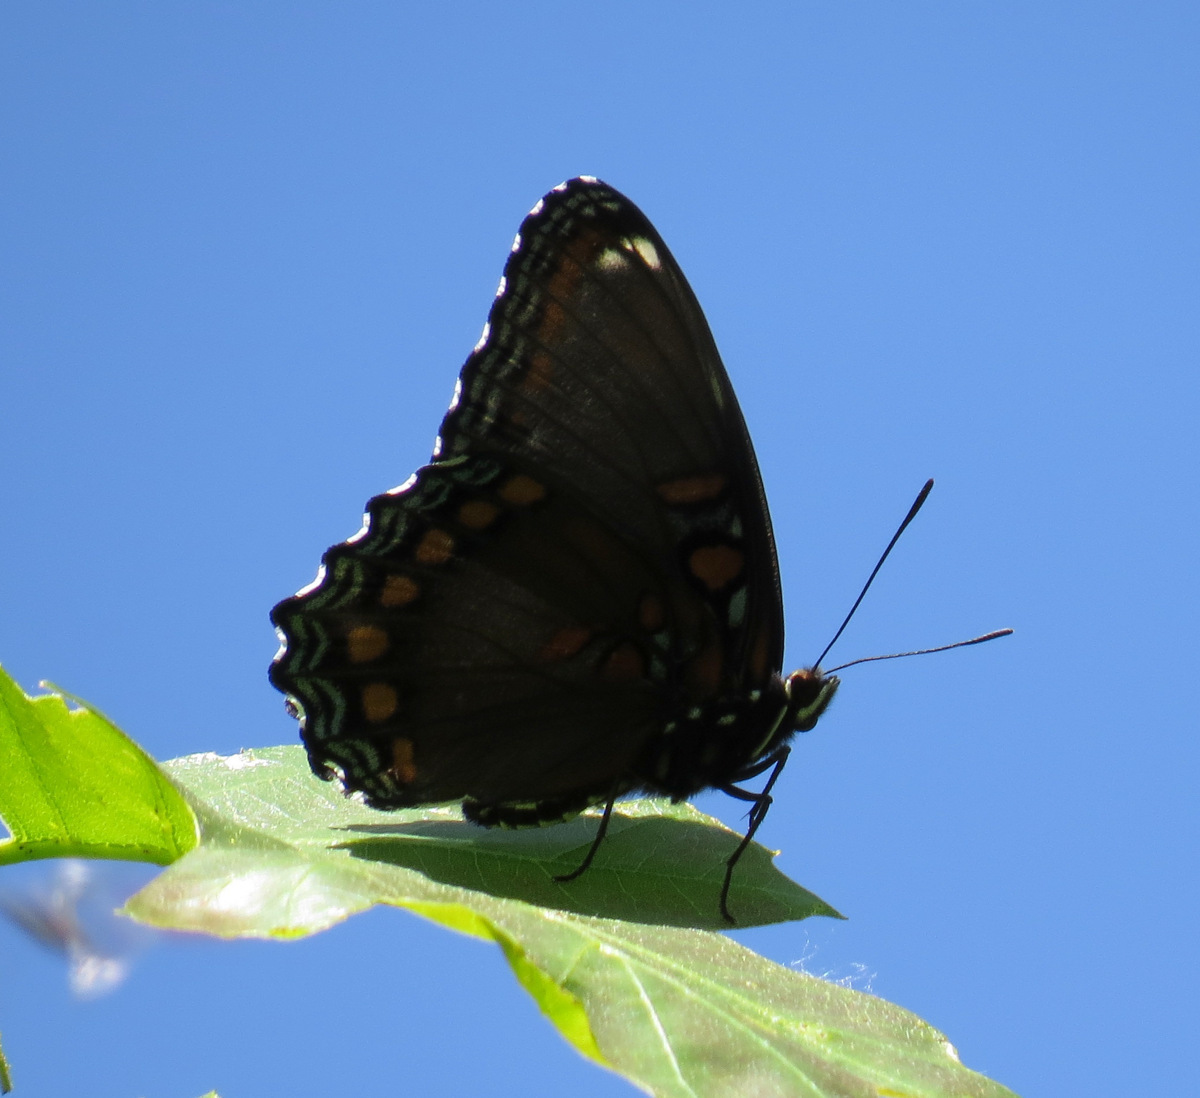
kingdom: Animalia
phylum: Arthropoda
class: Insecta
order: Lepidoptera
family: Nymphalidae
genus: Limenitis
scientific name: Limenitis astyanax
